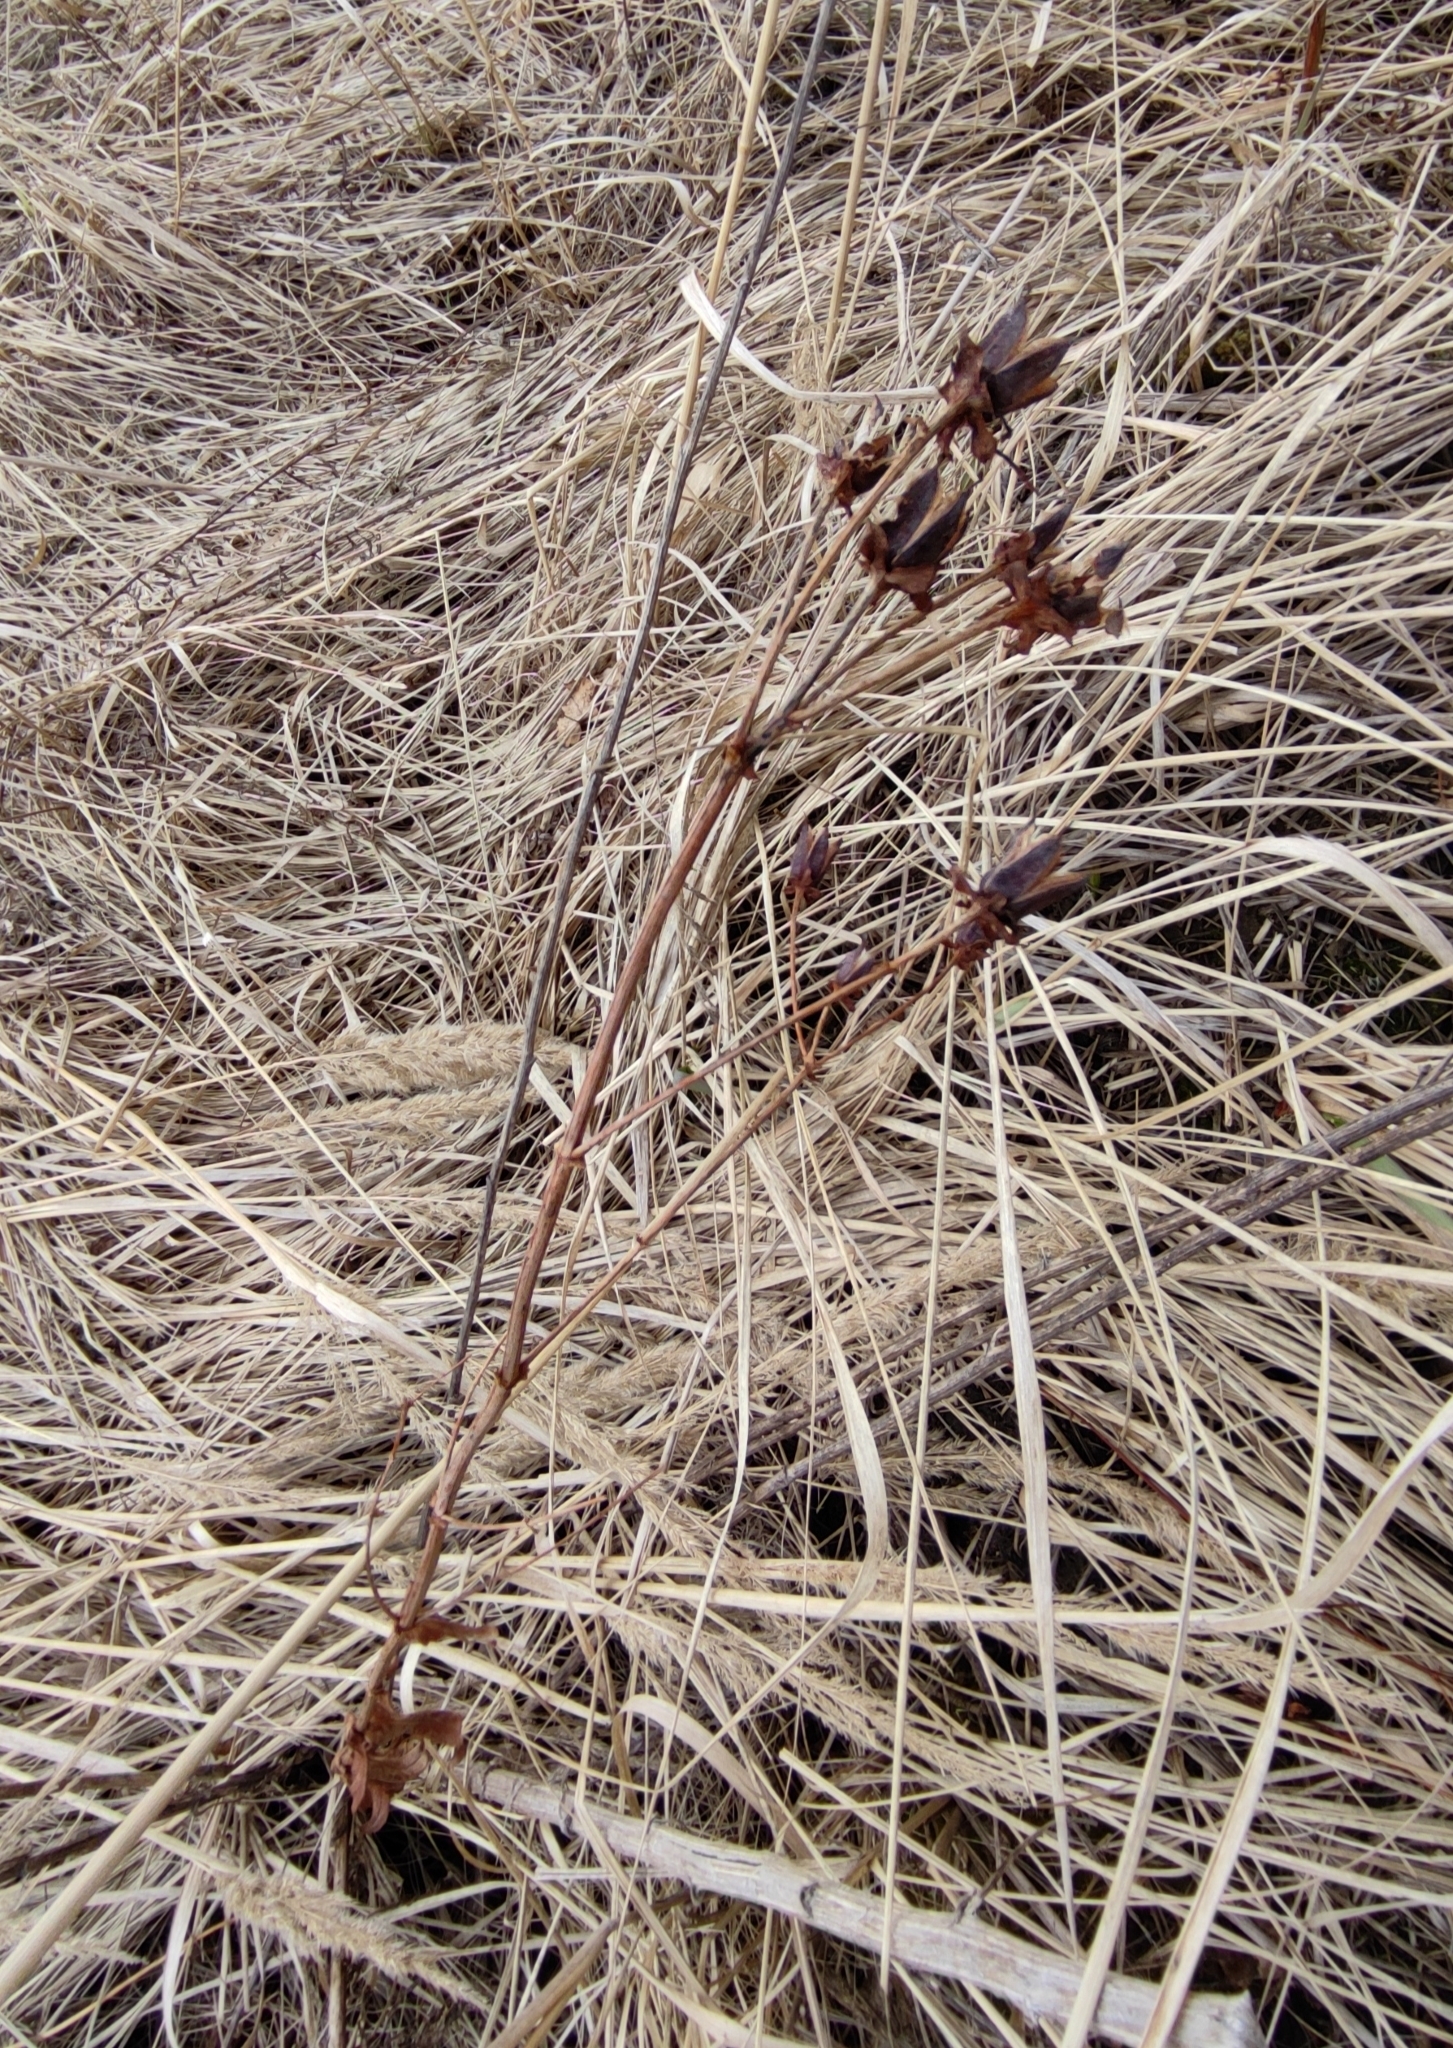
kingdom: Plantae
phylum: Tracheophyta
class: Magnoliopsida
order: Malpighiales
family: Hypericaceae
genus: Hypericum
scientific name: Hypericum ascyron
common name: Giant st. john's-wort
